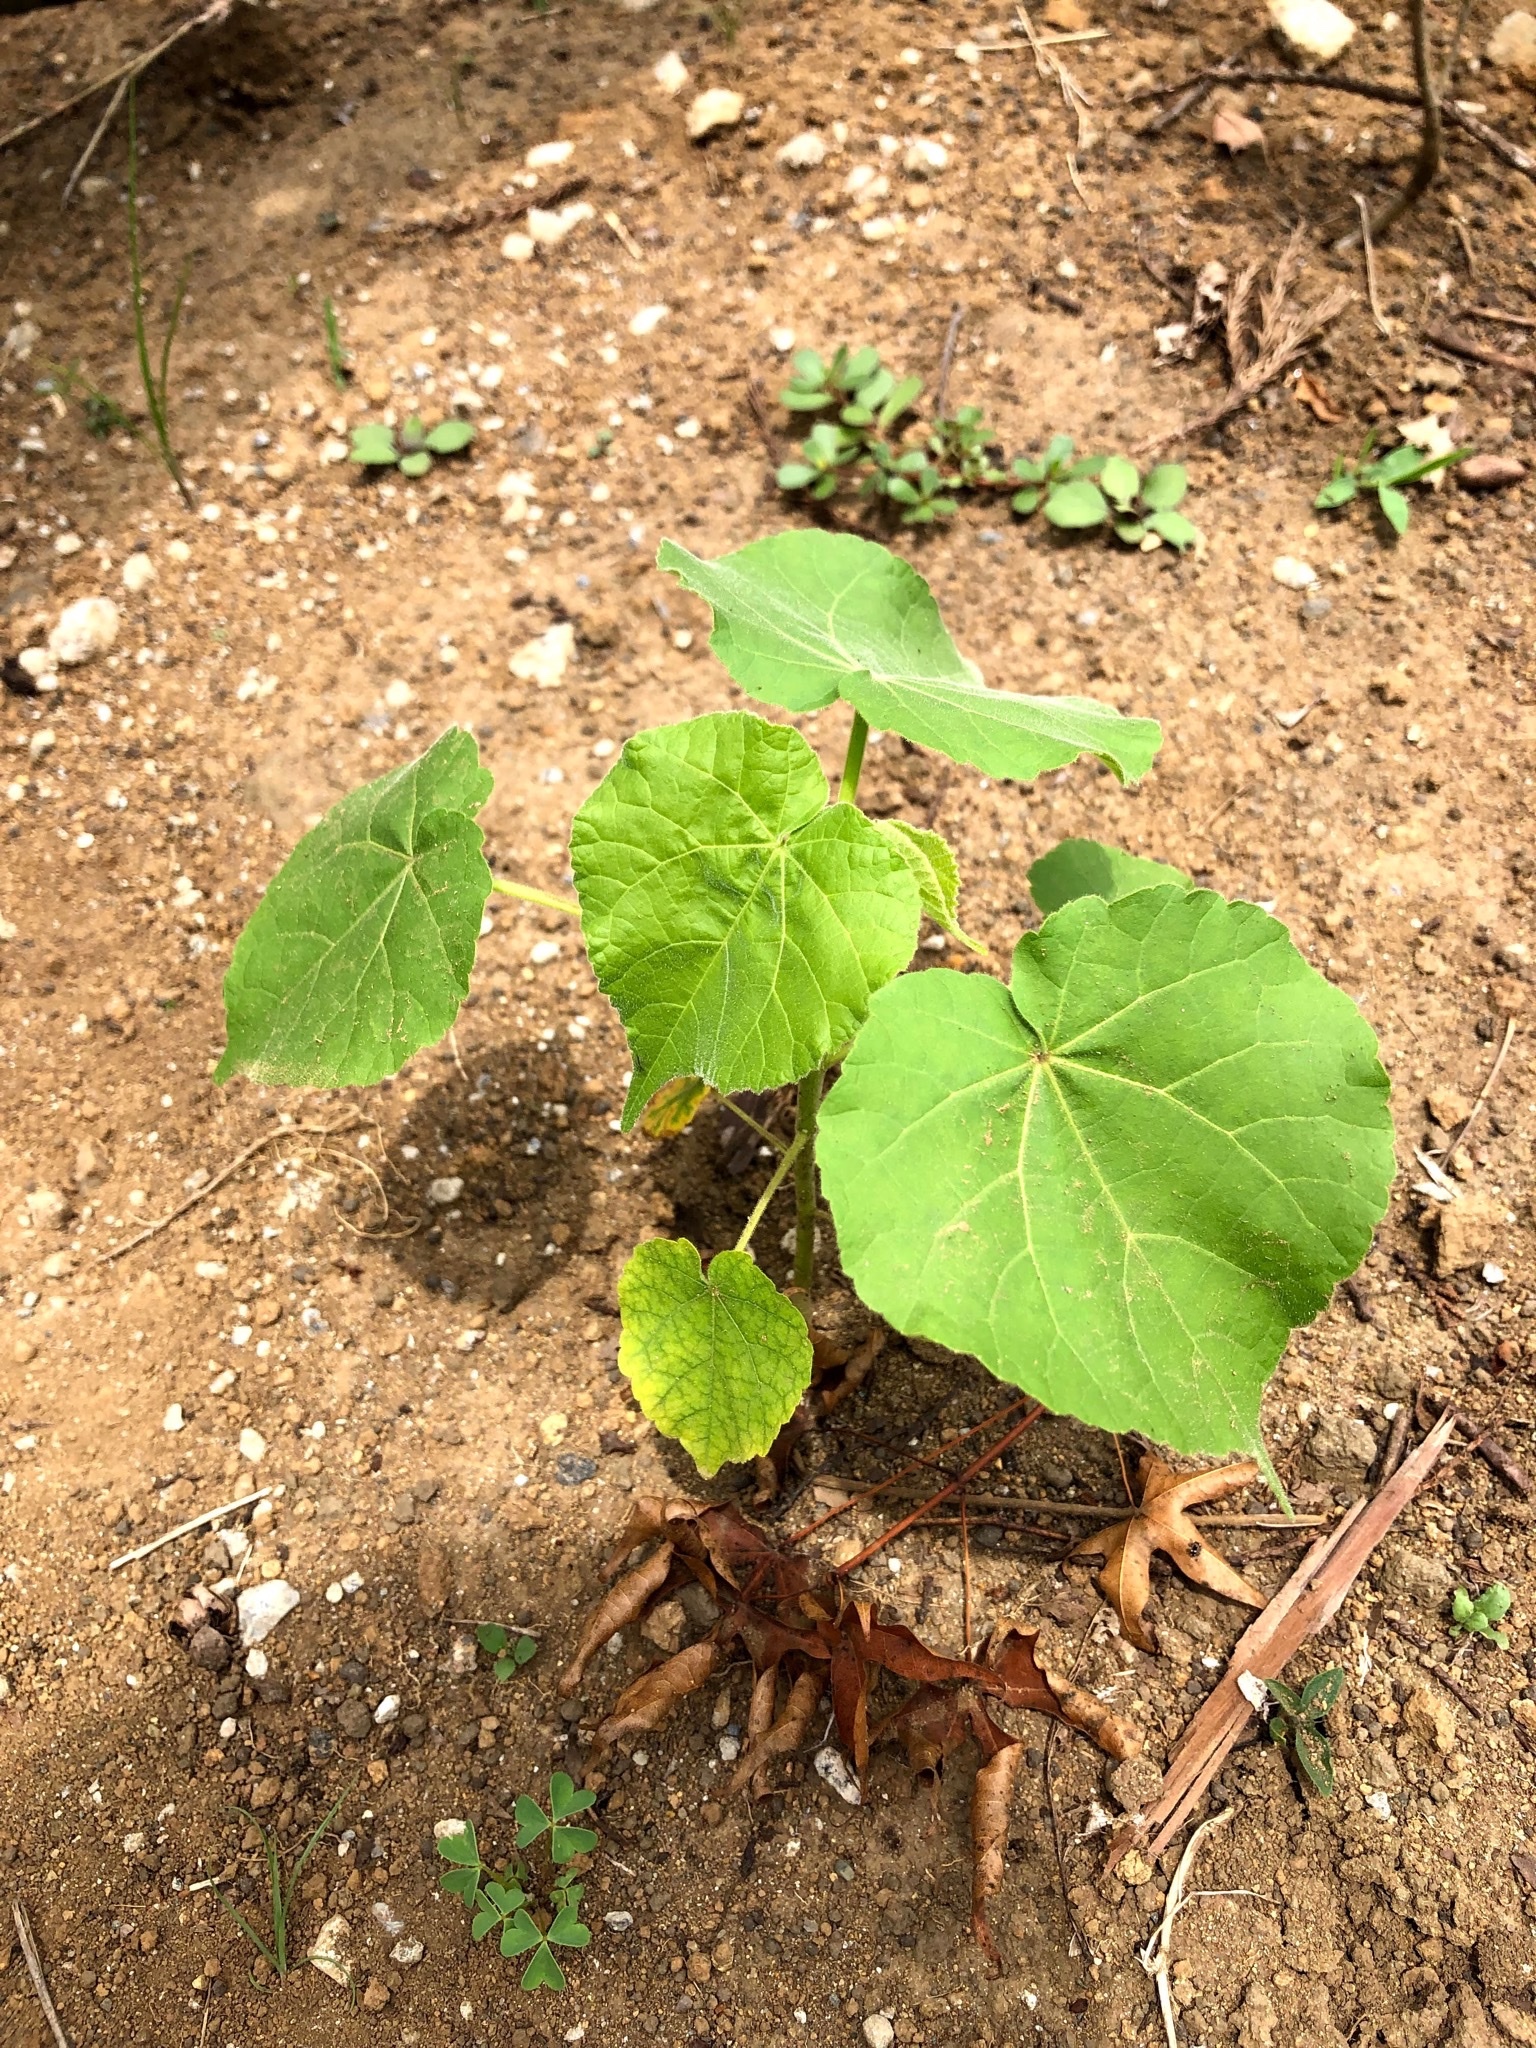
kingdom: Plantae
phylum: Tracheophyta
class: Magnoliopsida
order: Malvales
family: Malvaceae
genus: Abutilon
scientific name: Abutilon theophrasti
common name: Velvetleaf
